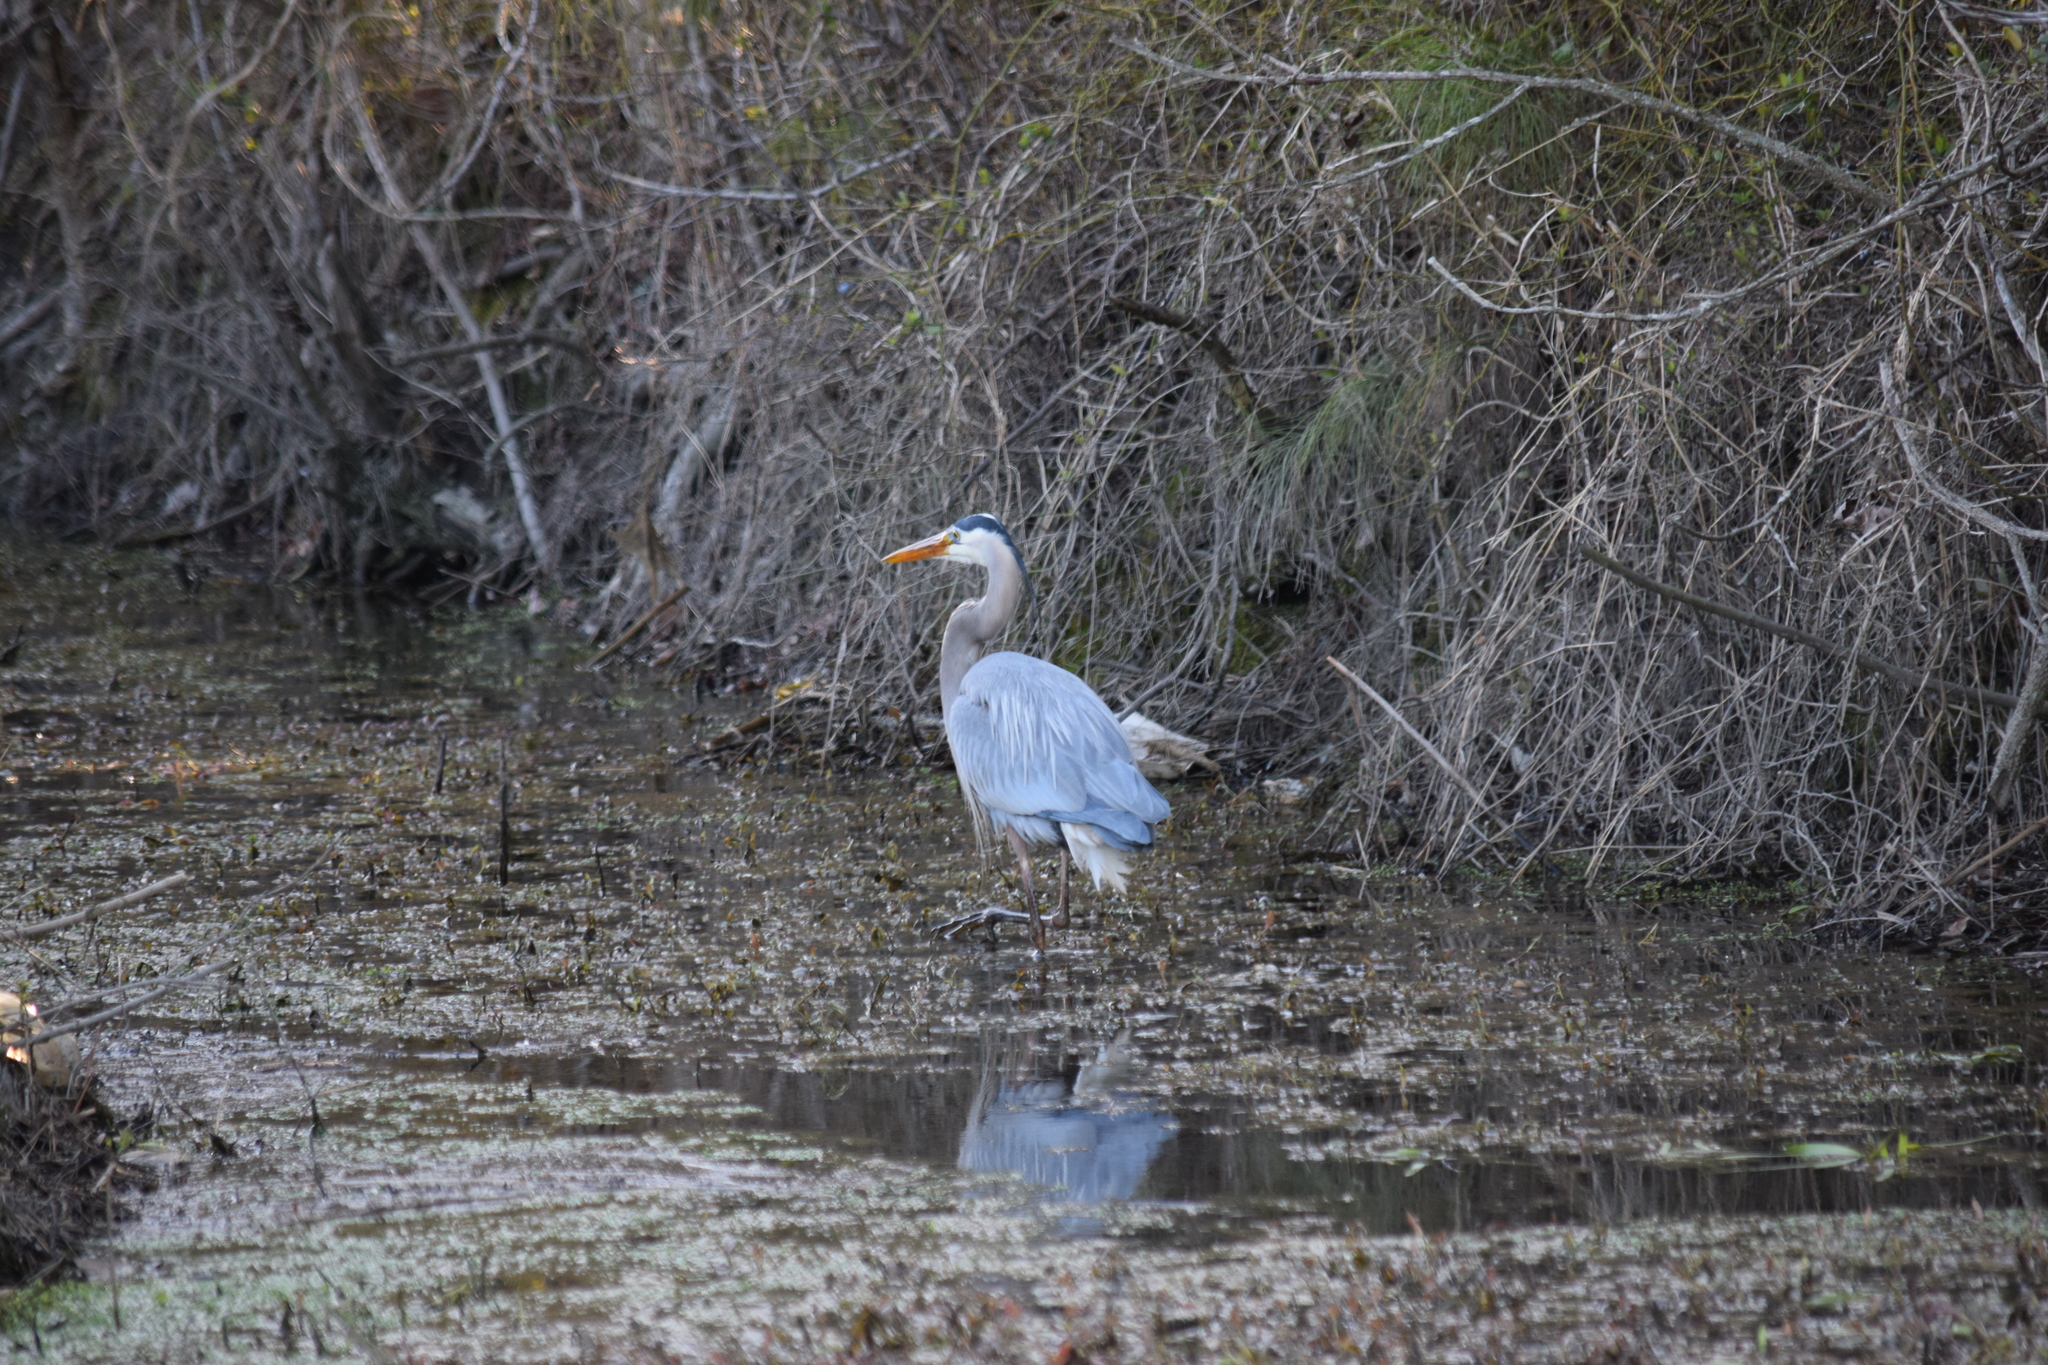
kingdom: Animalia
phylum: Chordata
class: Aves
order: Pelecaniformes
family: Ardeidae
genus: Ardea
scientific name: Ardea herodias
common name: Great blue heron
